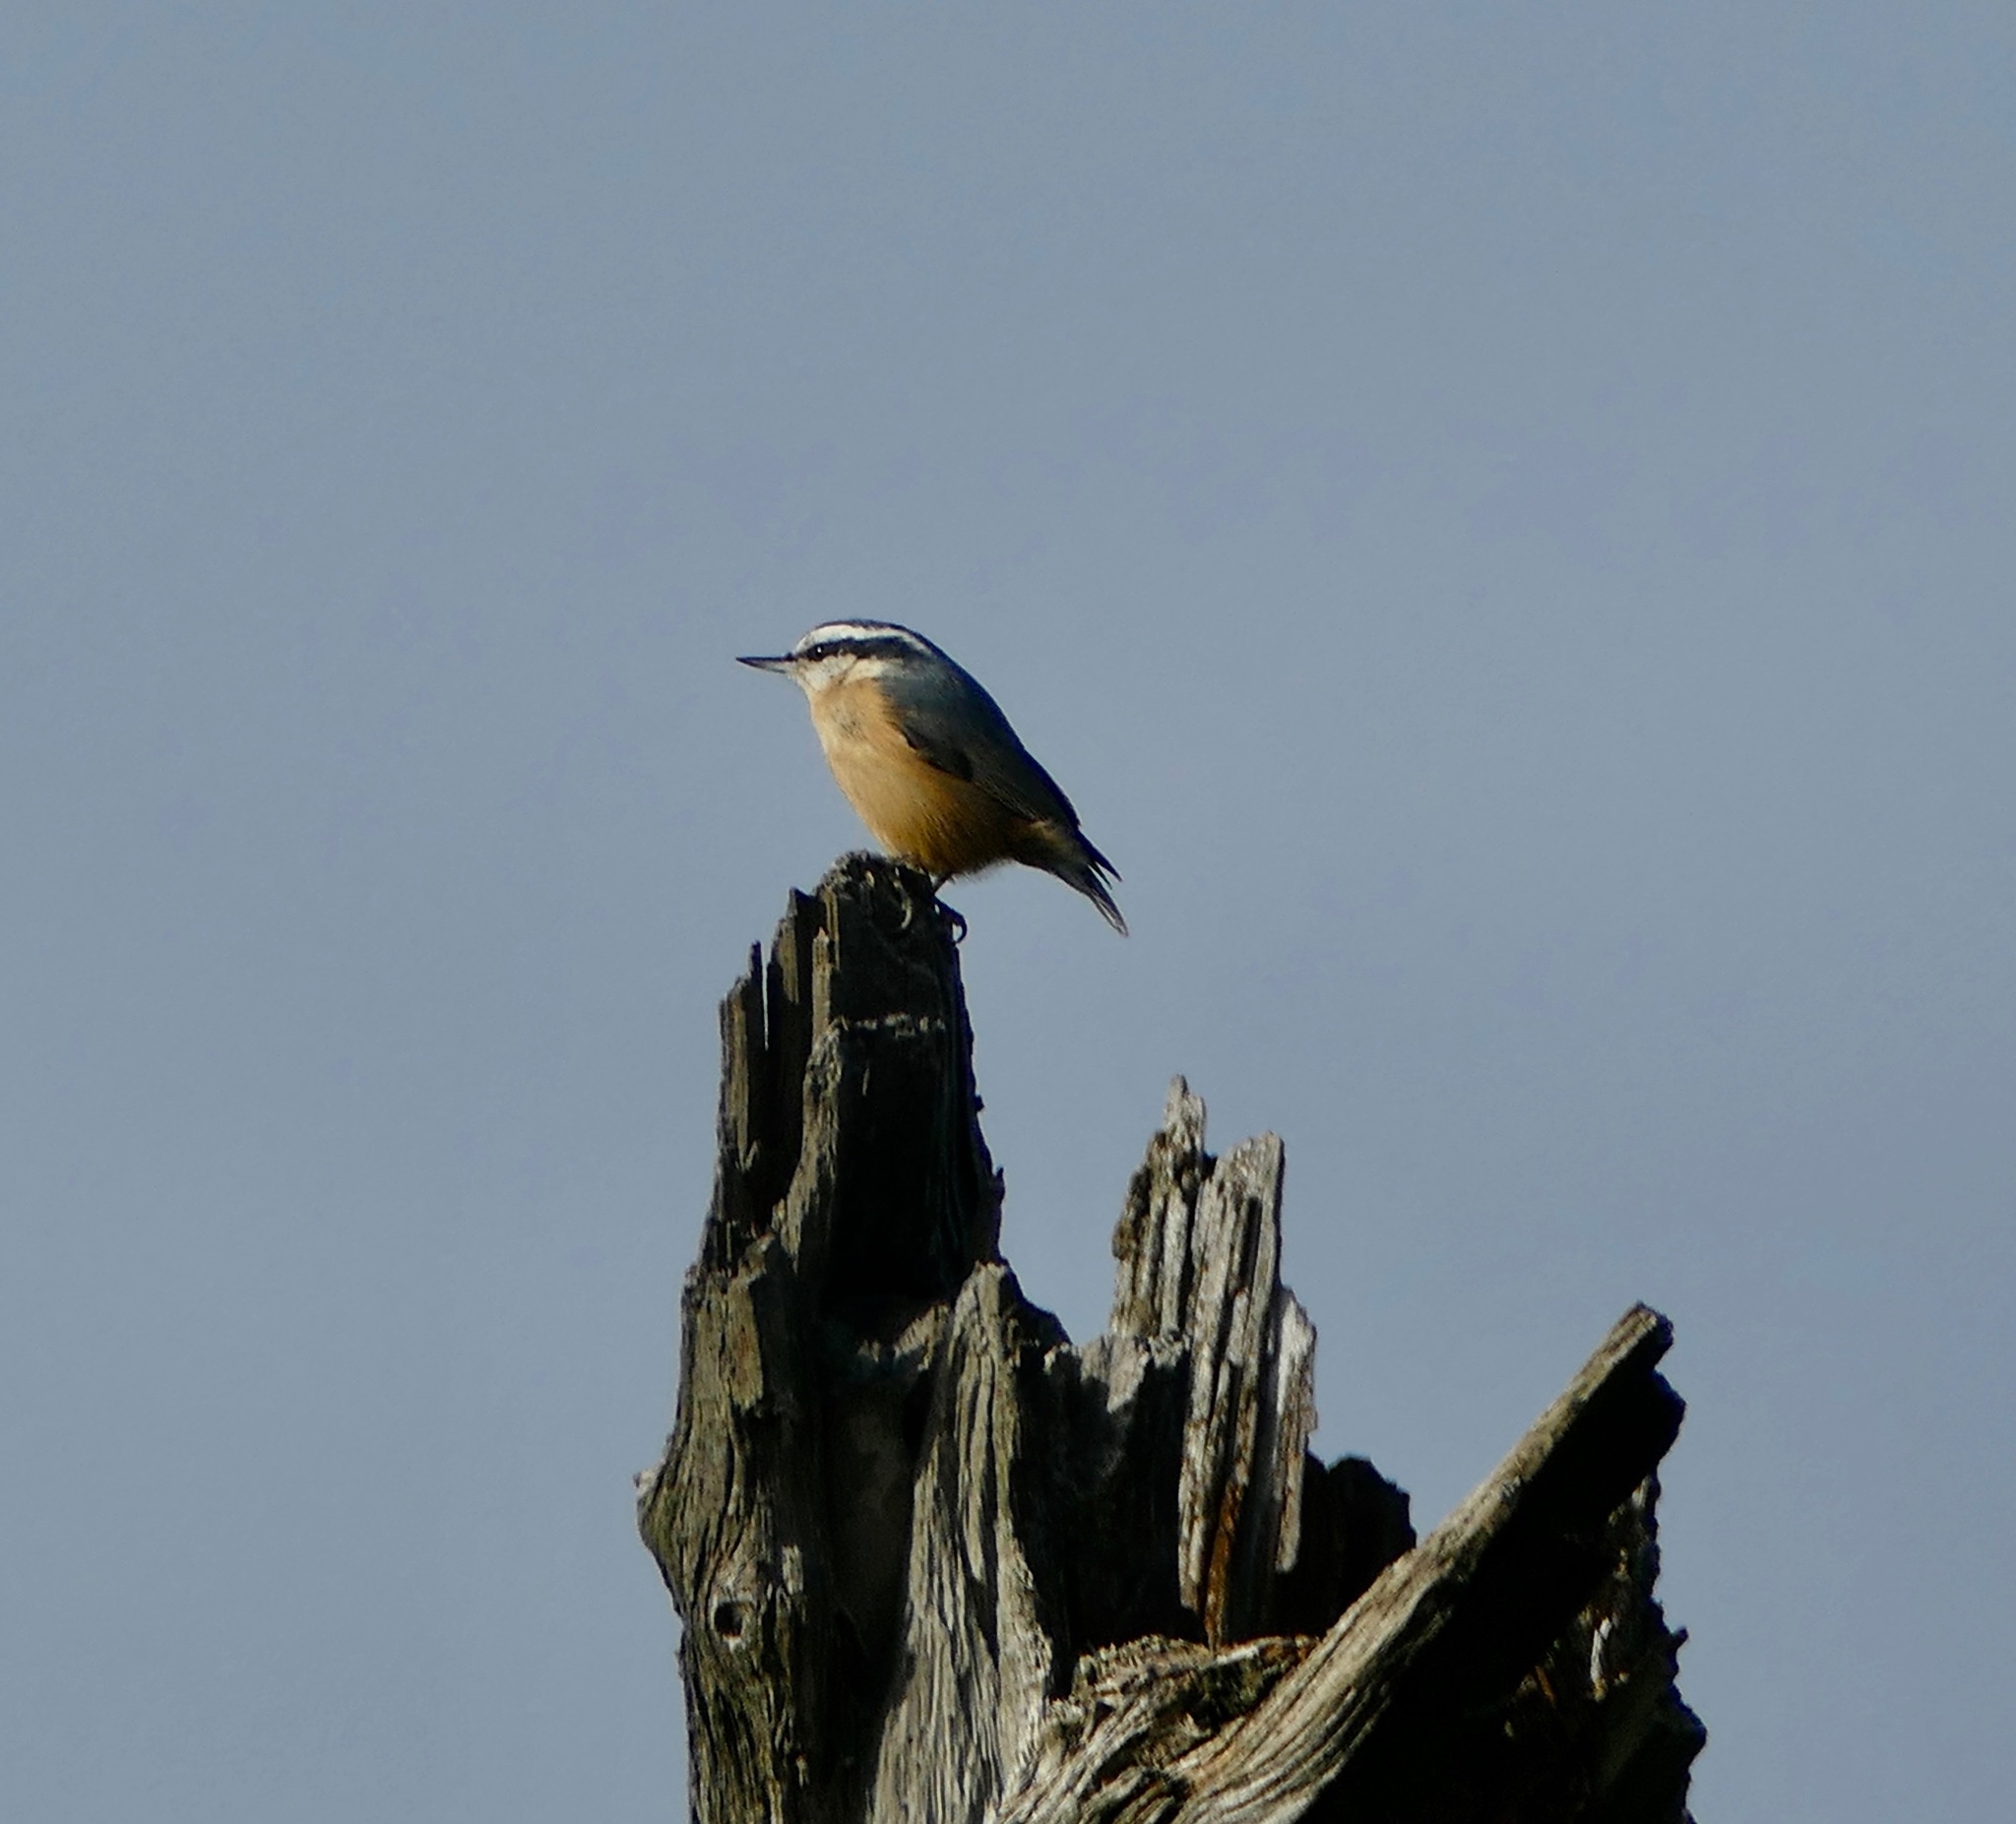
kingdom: Animalia
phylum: Chordata
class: Aves
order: Passeriformes
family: Sittidae
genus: Sitta
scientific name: Sitta canadensis
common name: Red-breasted nuthatch
